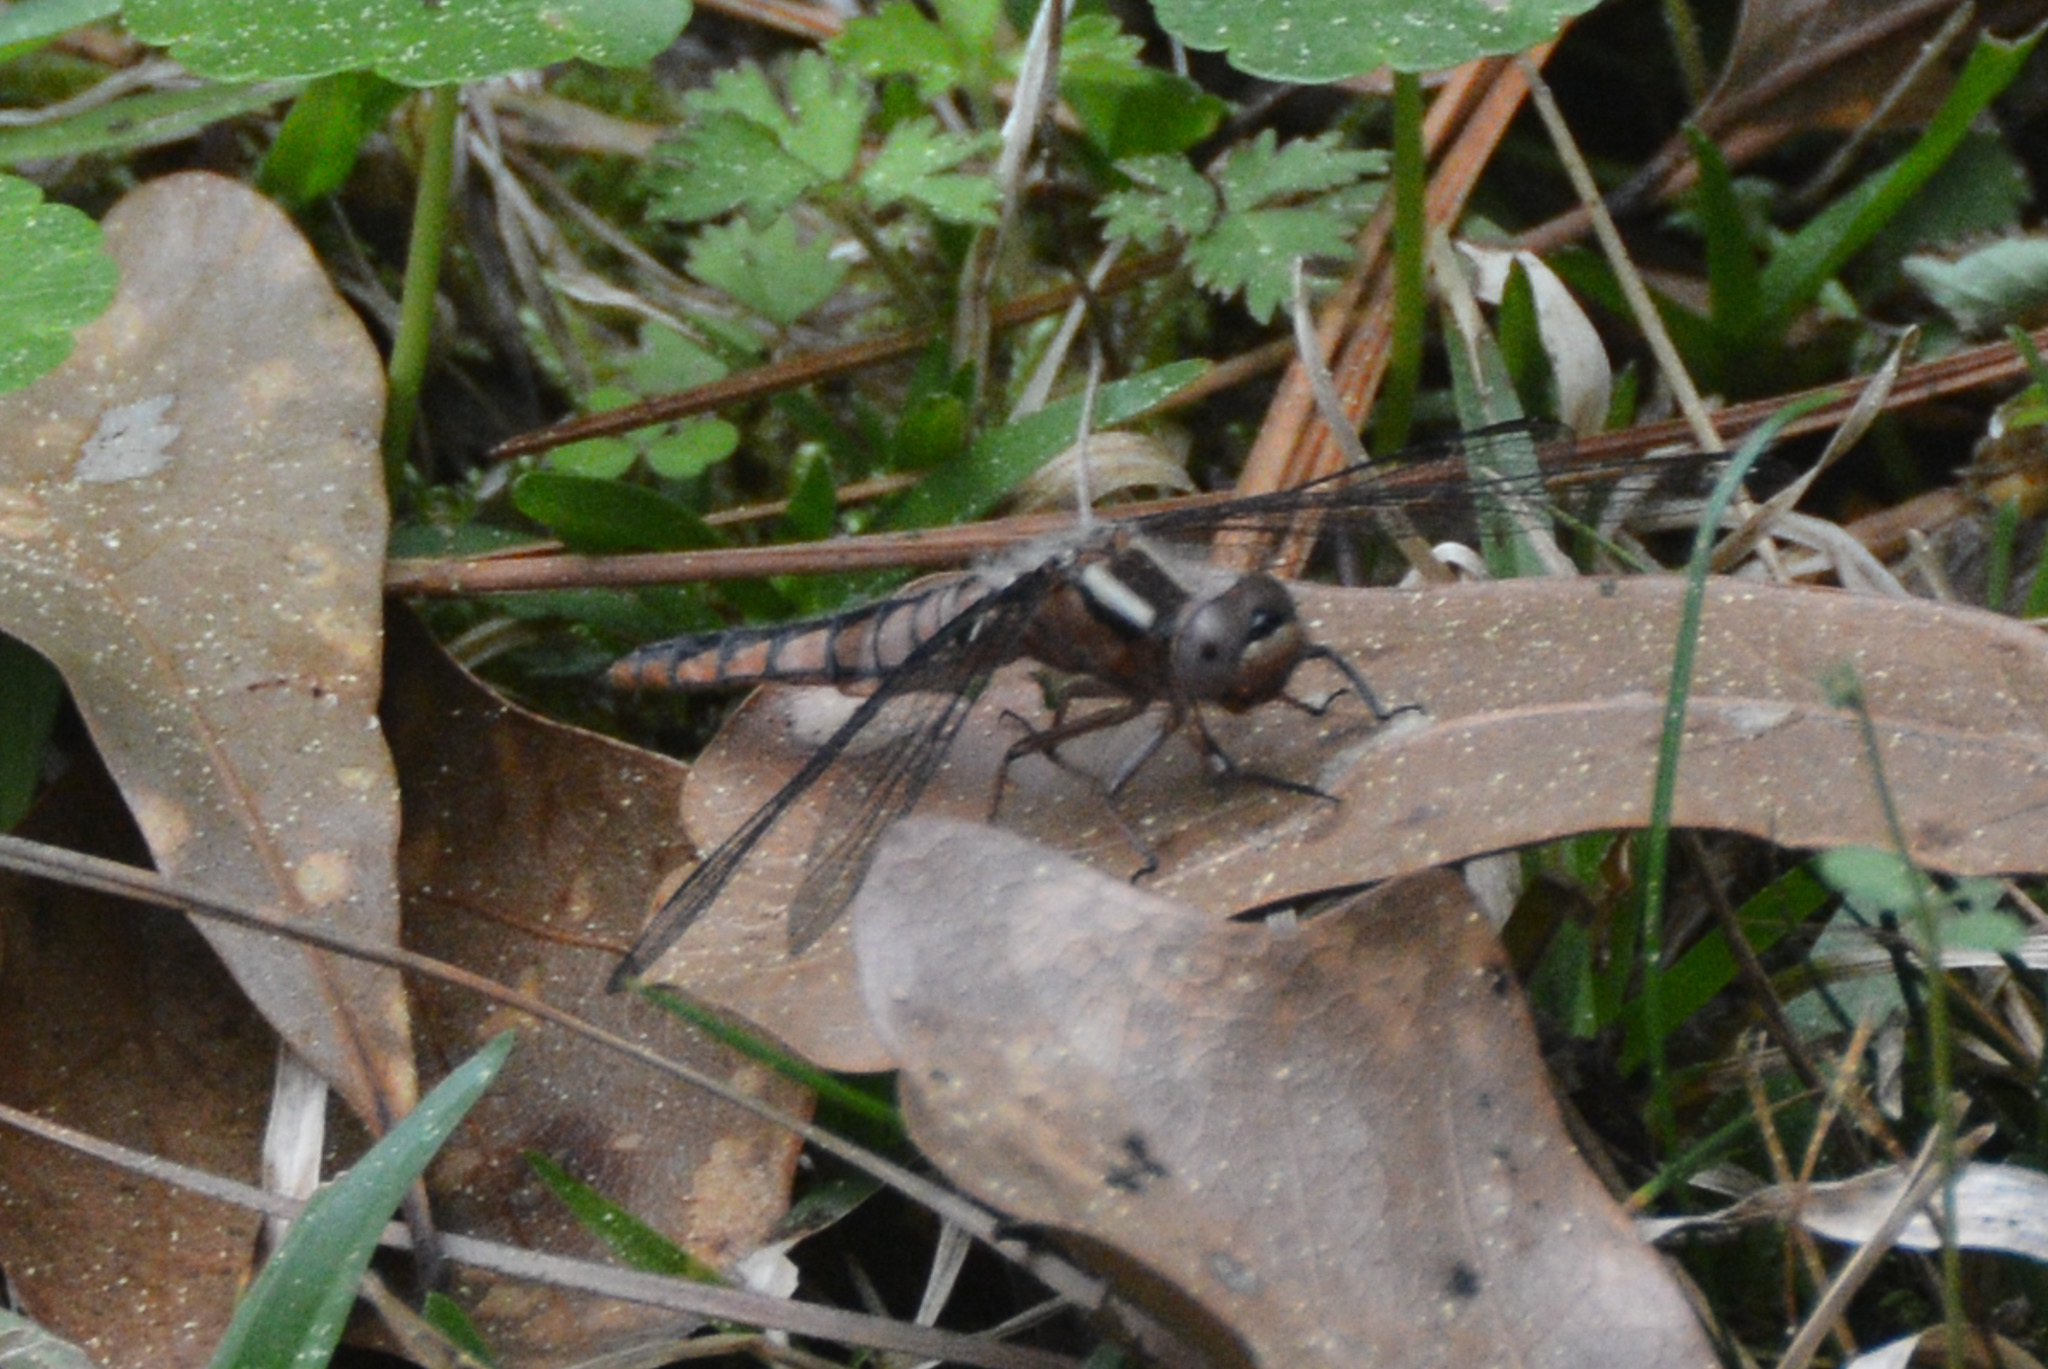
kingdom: Animalia
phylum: Arthropoda
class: Insecta
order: Odonata
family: Libellulidae
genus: Ladona
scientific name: Ladona deplanata
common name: Blue corporal
